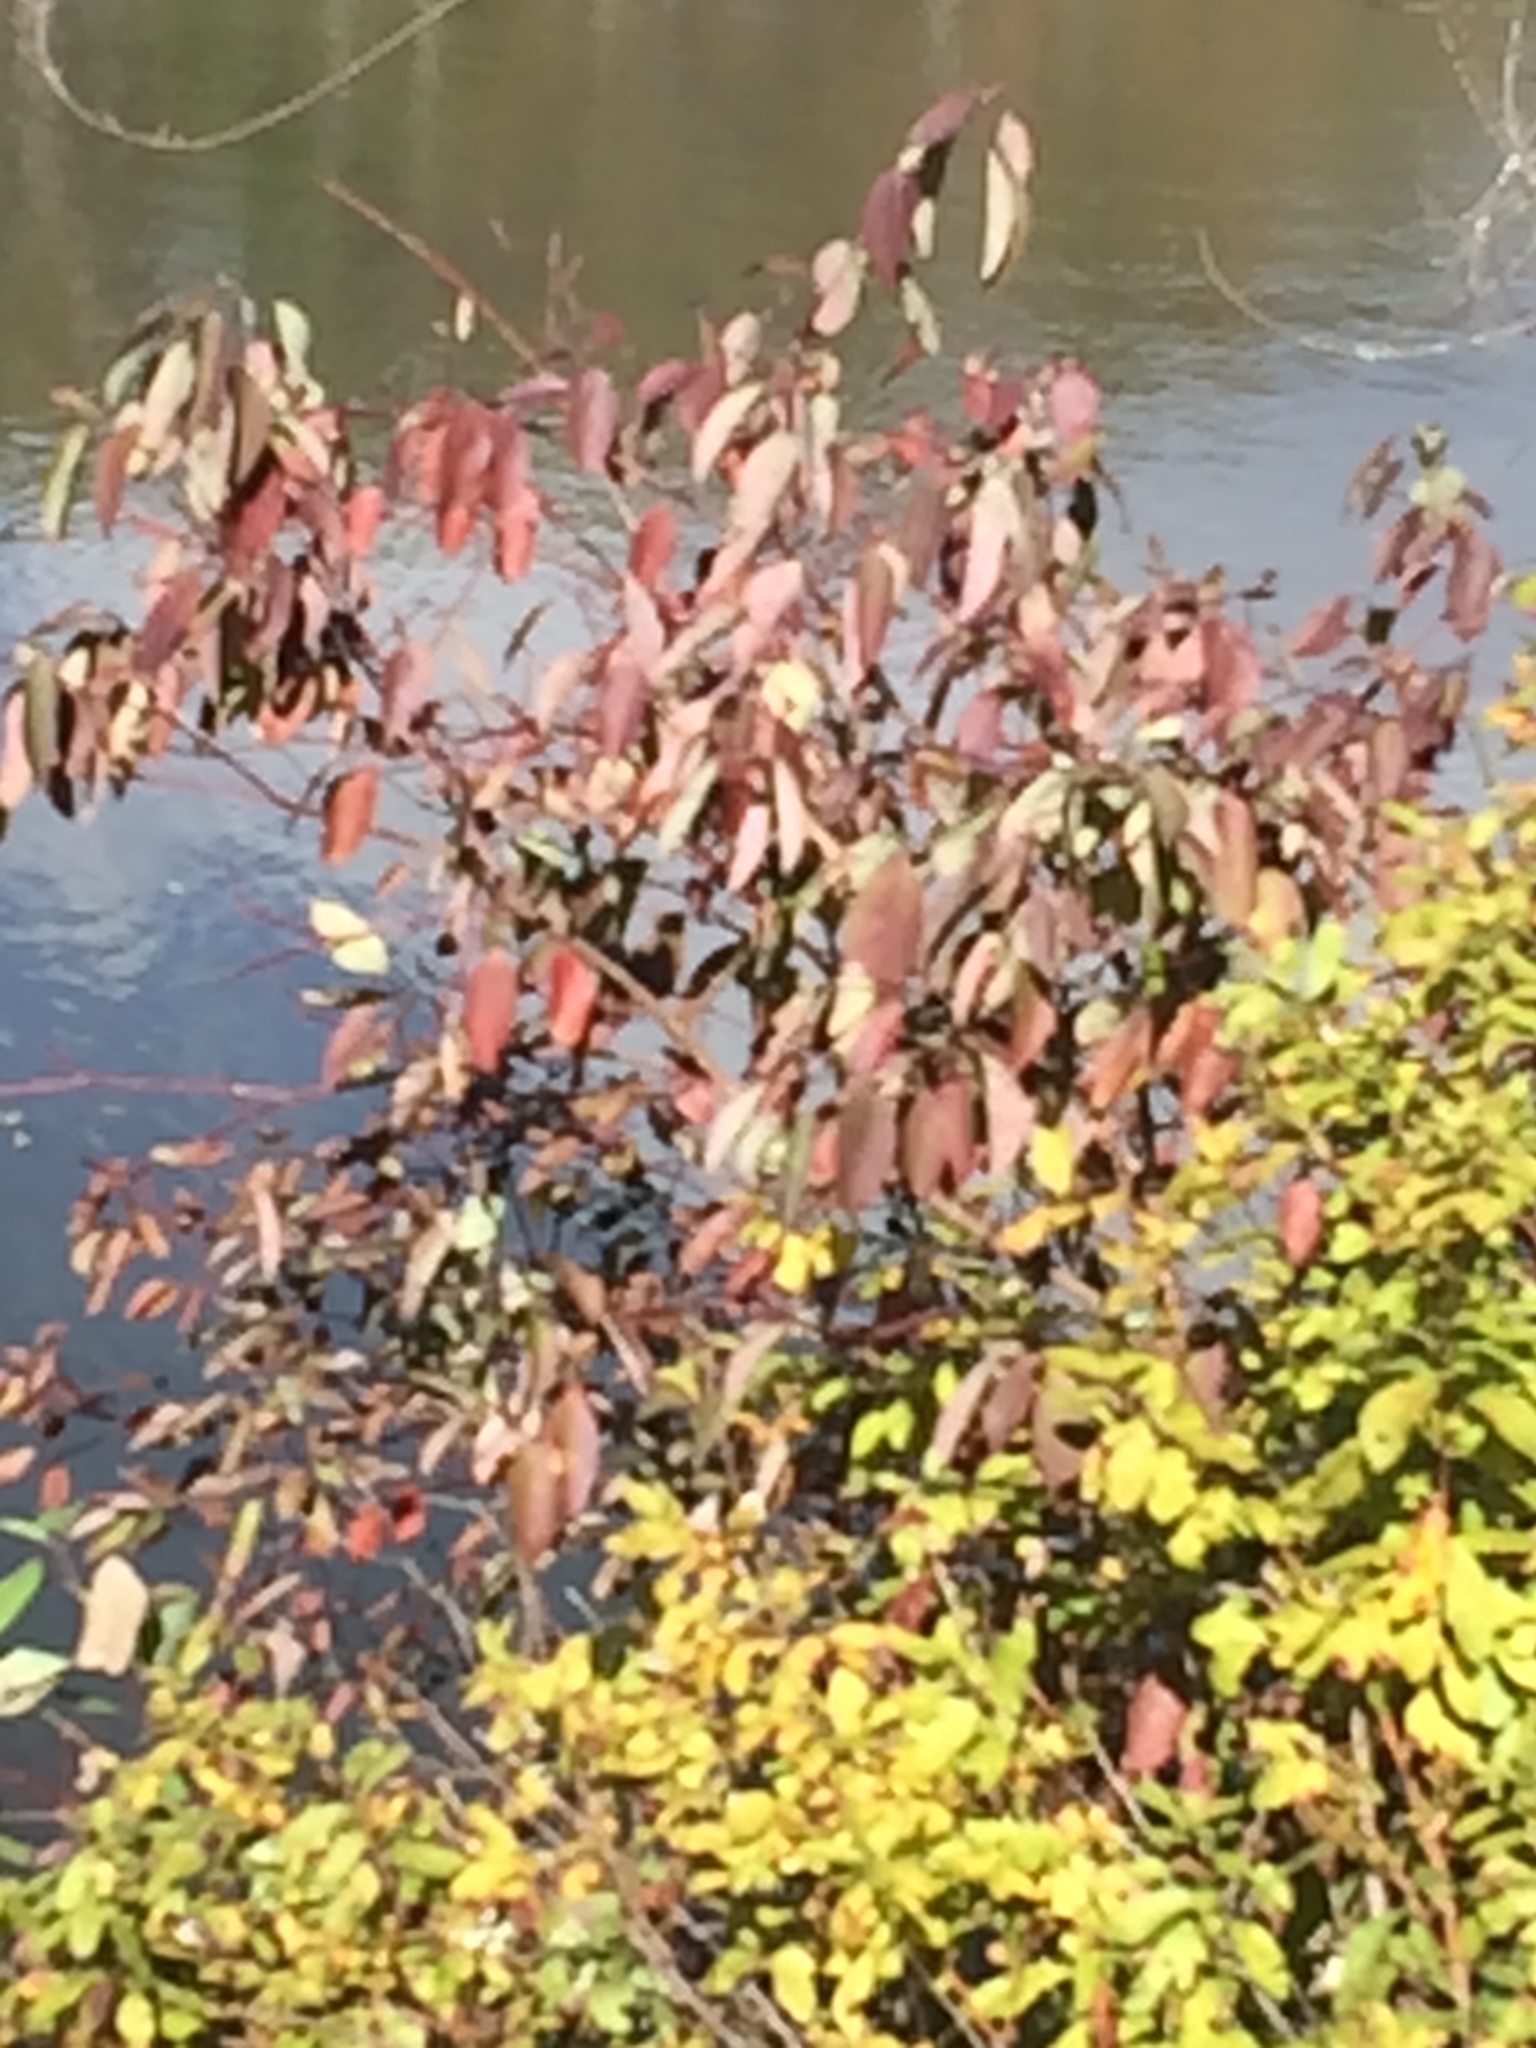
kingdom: Plantae
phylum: Tracheophyta
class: Magnoliopsida
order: Cornales
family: Cornaceae
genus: Cornus
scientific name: Cornus sericea
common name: Red-osier dogwood
